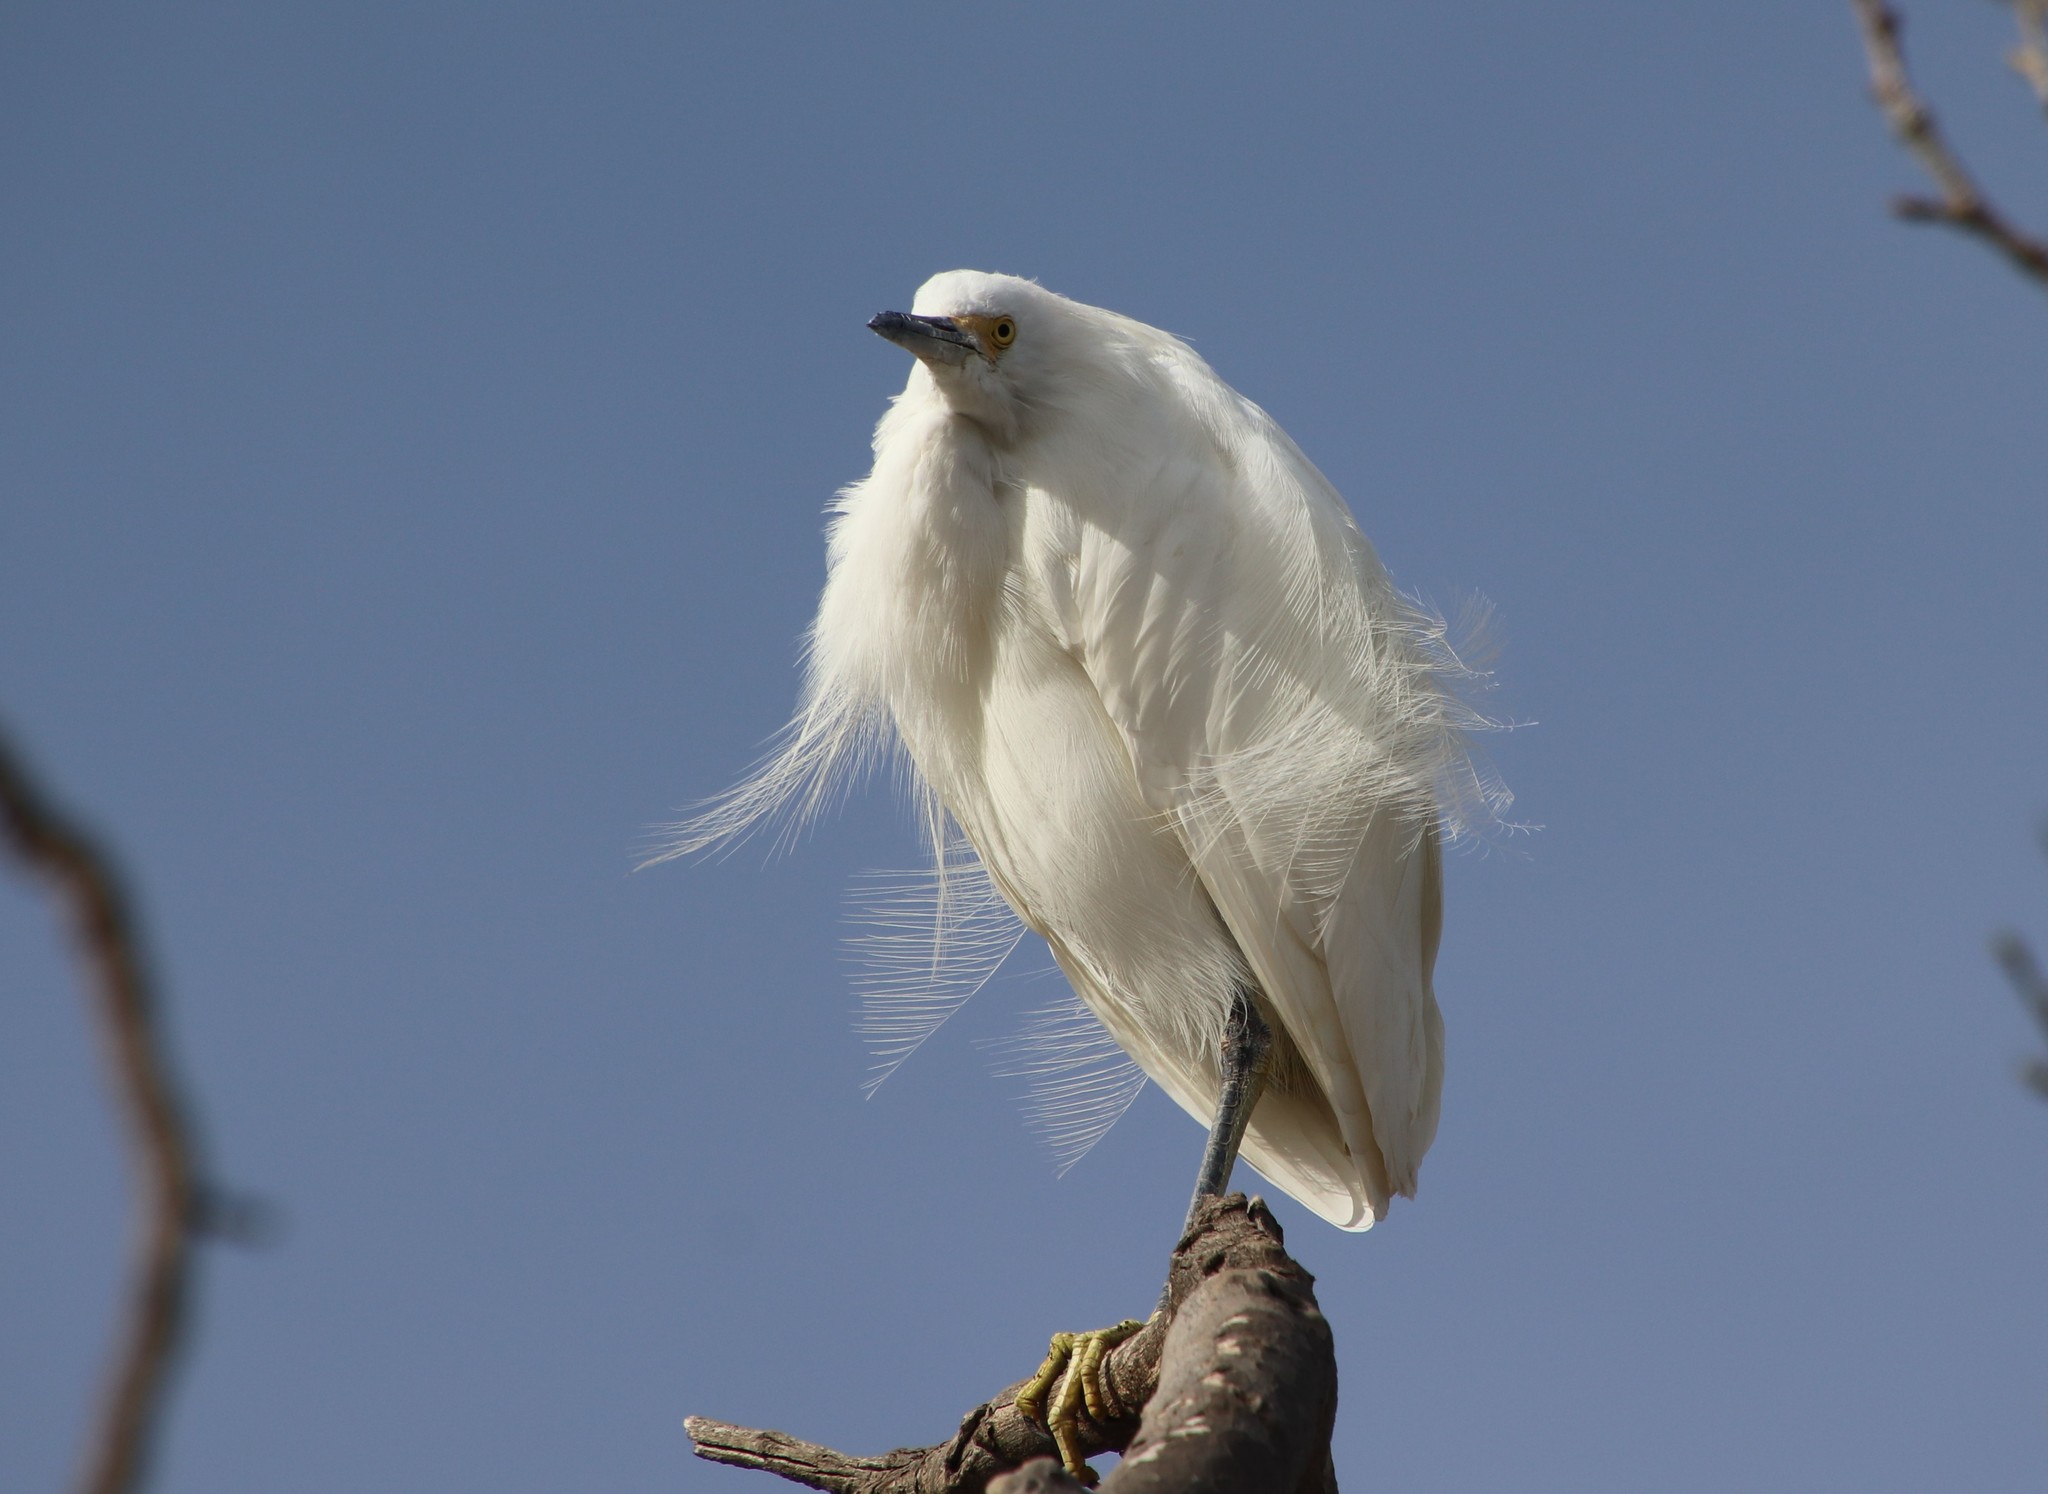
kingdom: Animalia
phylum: Chordata
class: Aves
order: Pelecaniformes
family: Ardeidae
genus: Egretta
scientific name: Egretta thula
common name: Snowy egret
